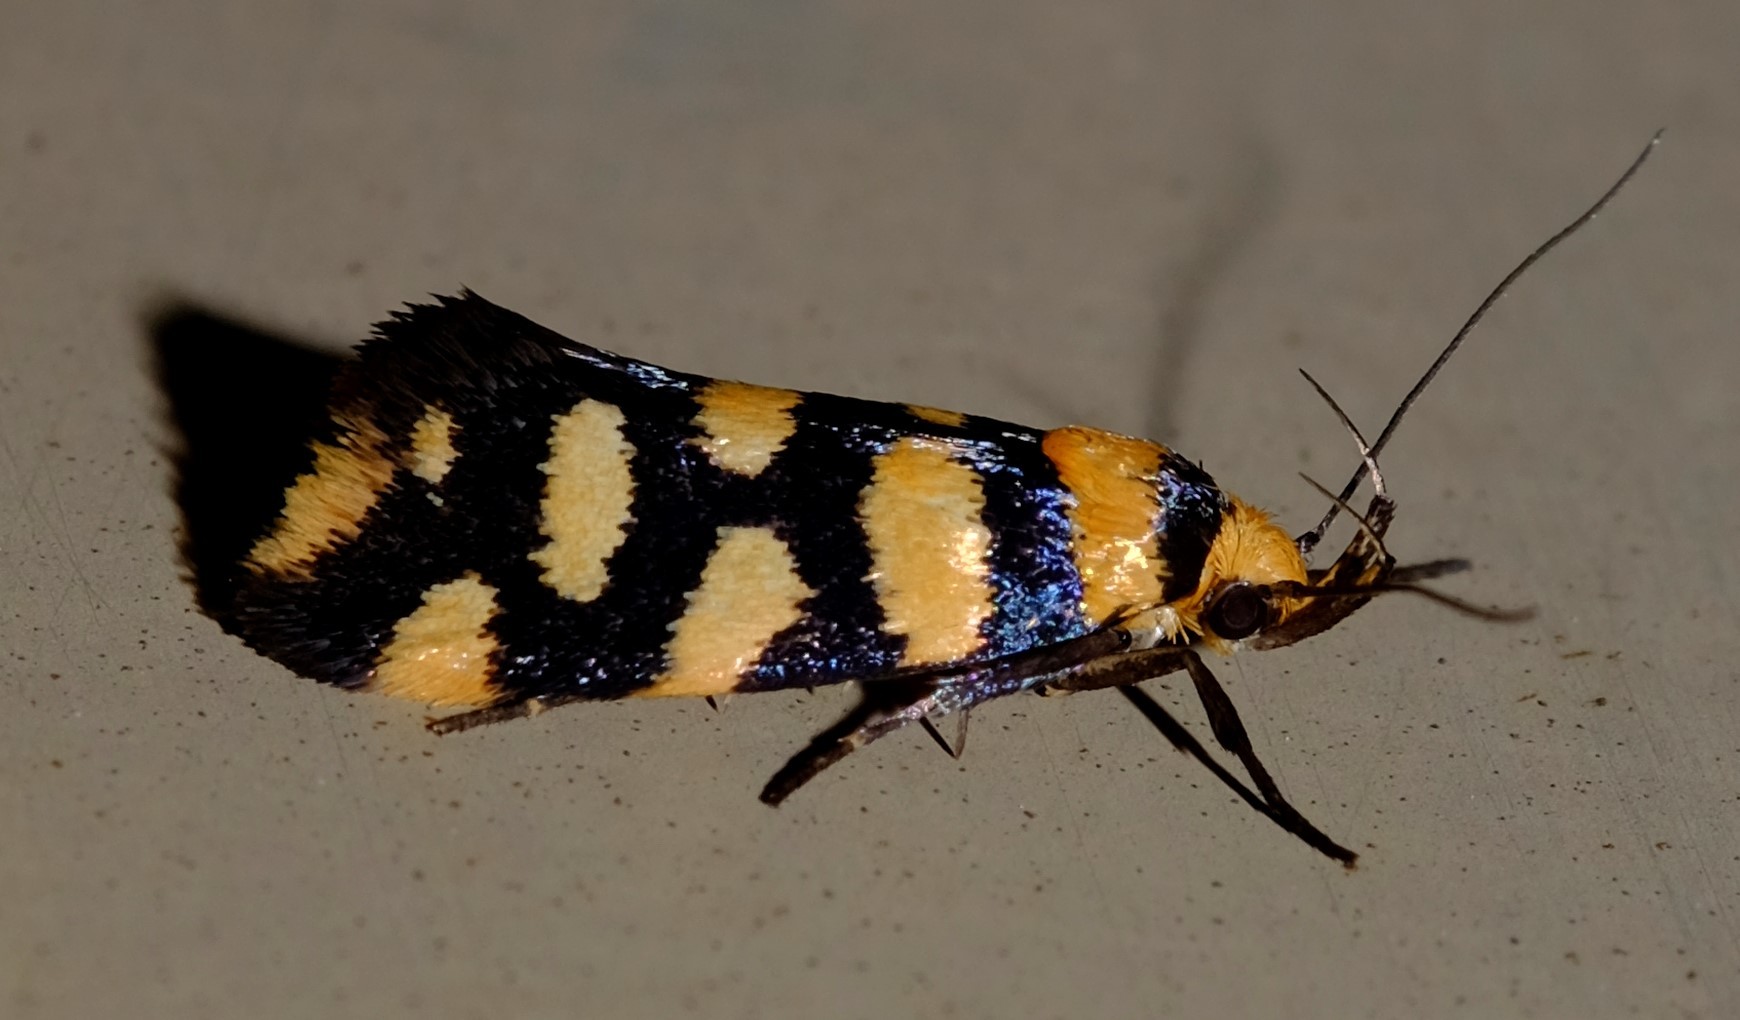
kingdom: Animalia
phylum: Arthropoda
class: Insecta
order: Lepidoptera
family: Oecophoridae
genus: Tanyzancla
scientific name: Tanyzancla argutella
